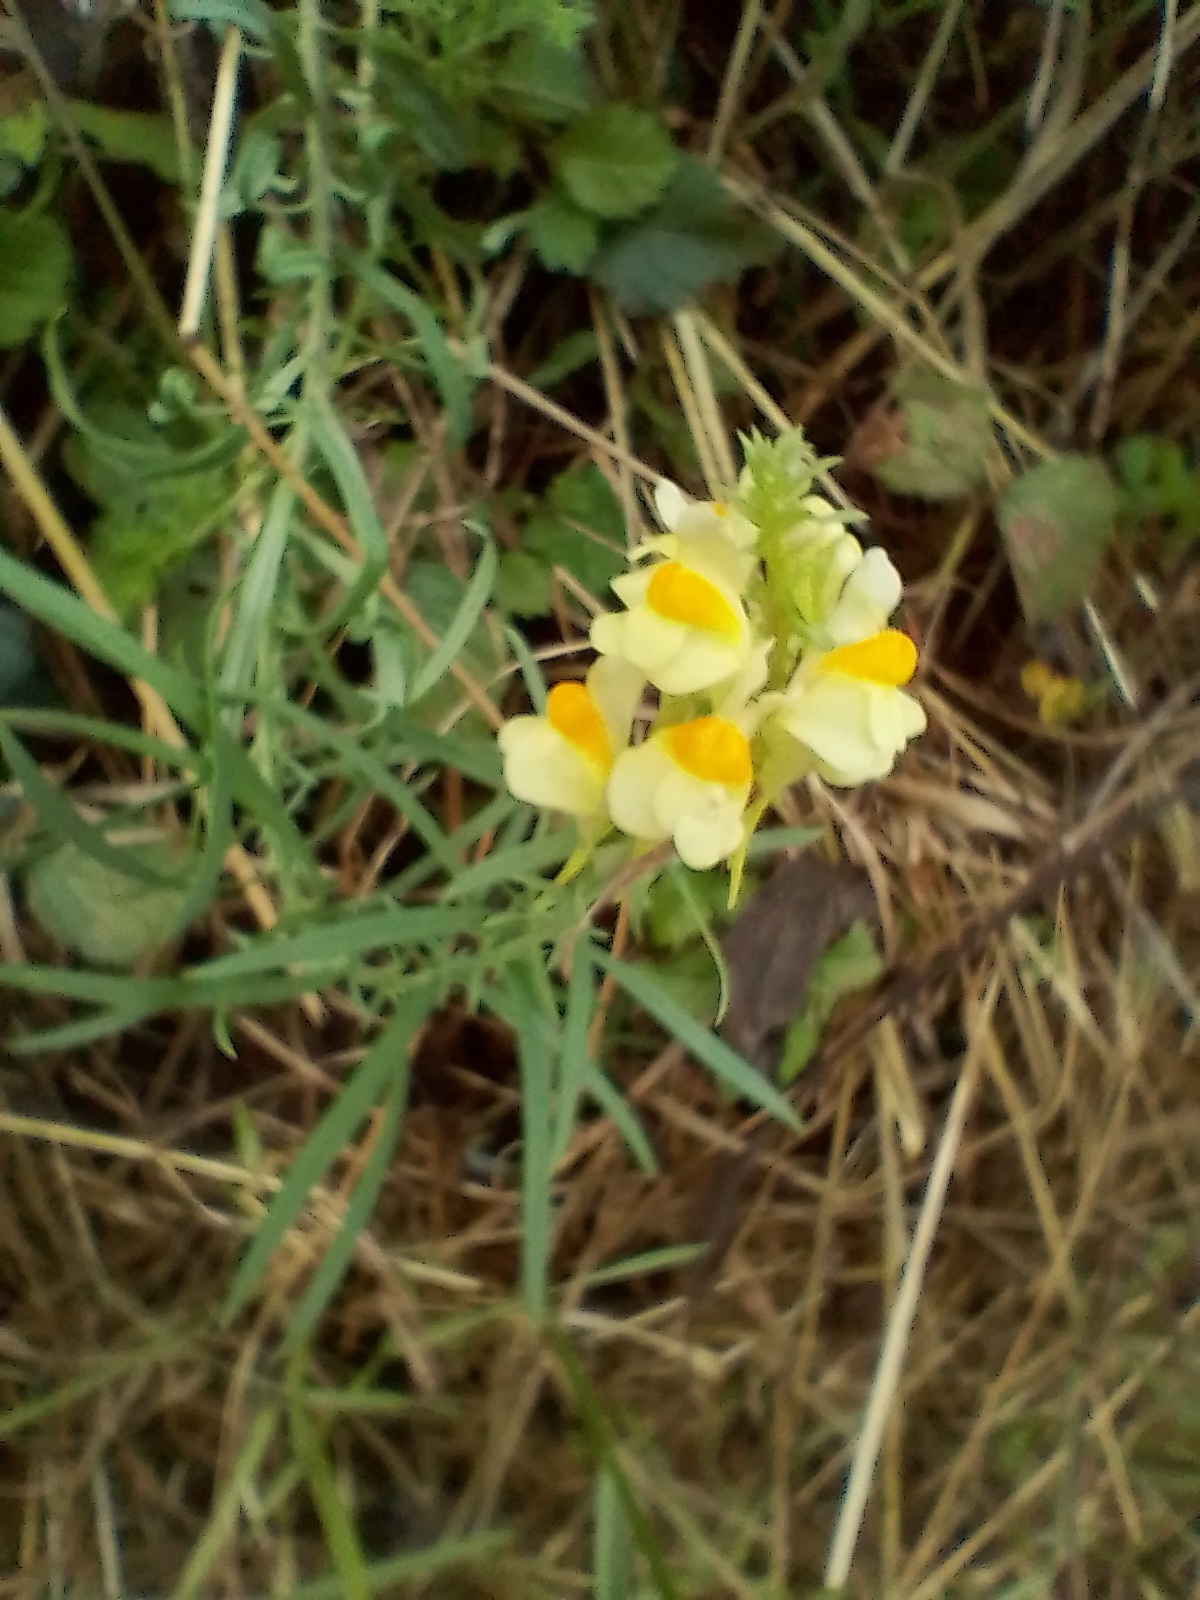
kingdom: Plantae
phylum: Tracheophyta
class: Magnoliopsida
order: Lamiales
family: Plantaginaceae
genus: Linaria
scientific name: Linaria vulgaris
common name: Butter and eggs
